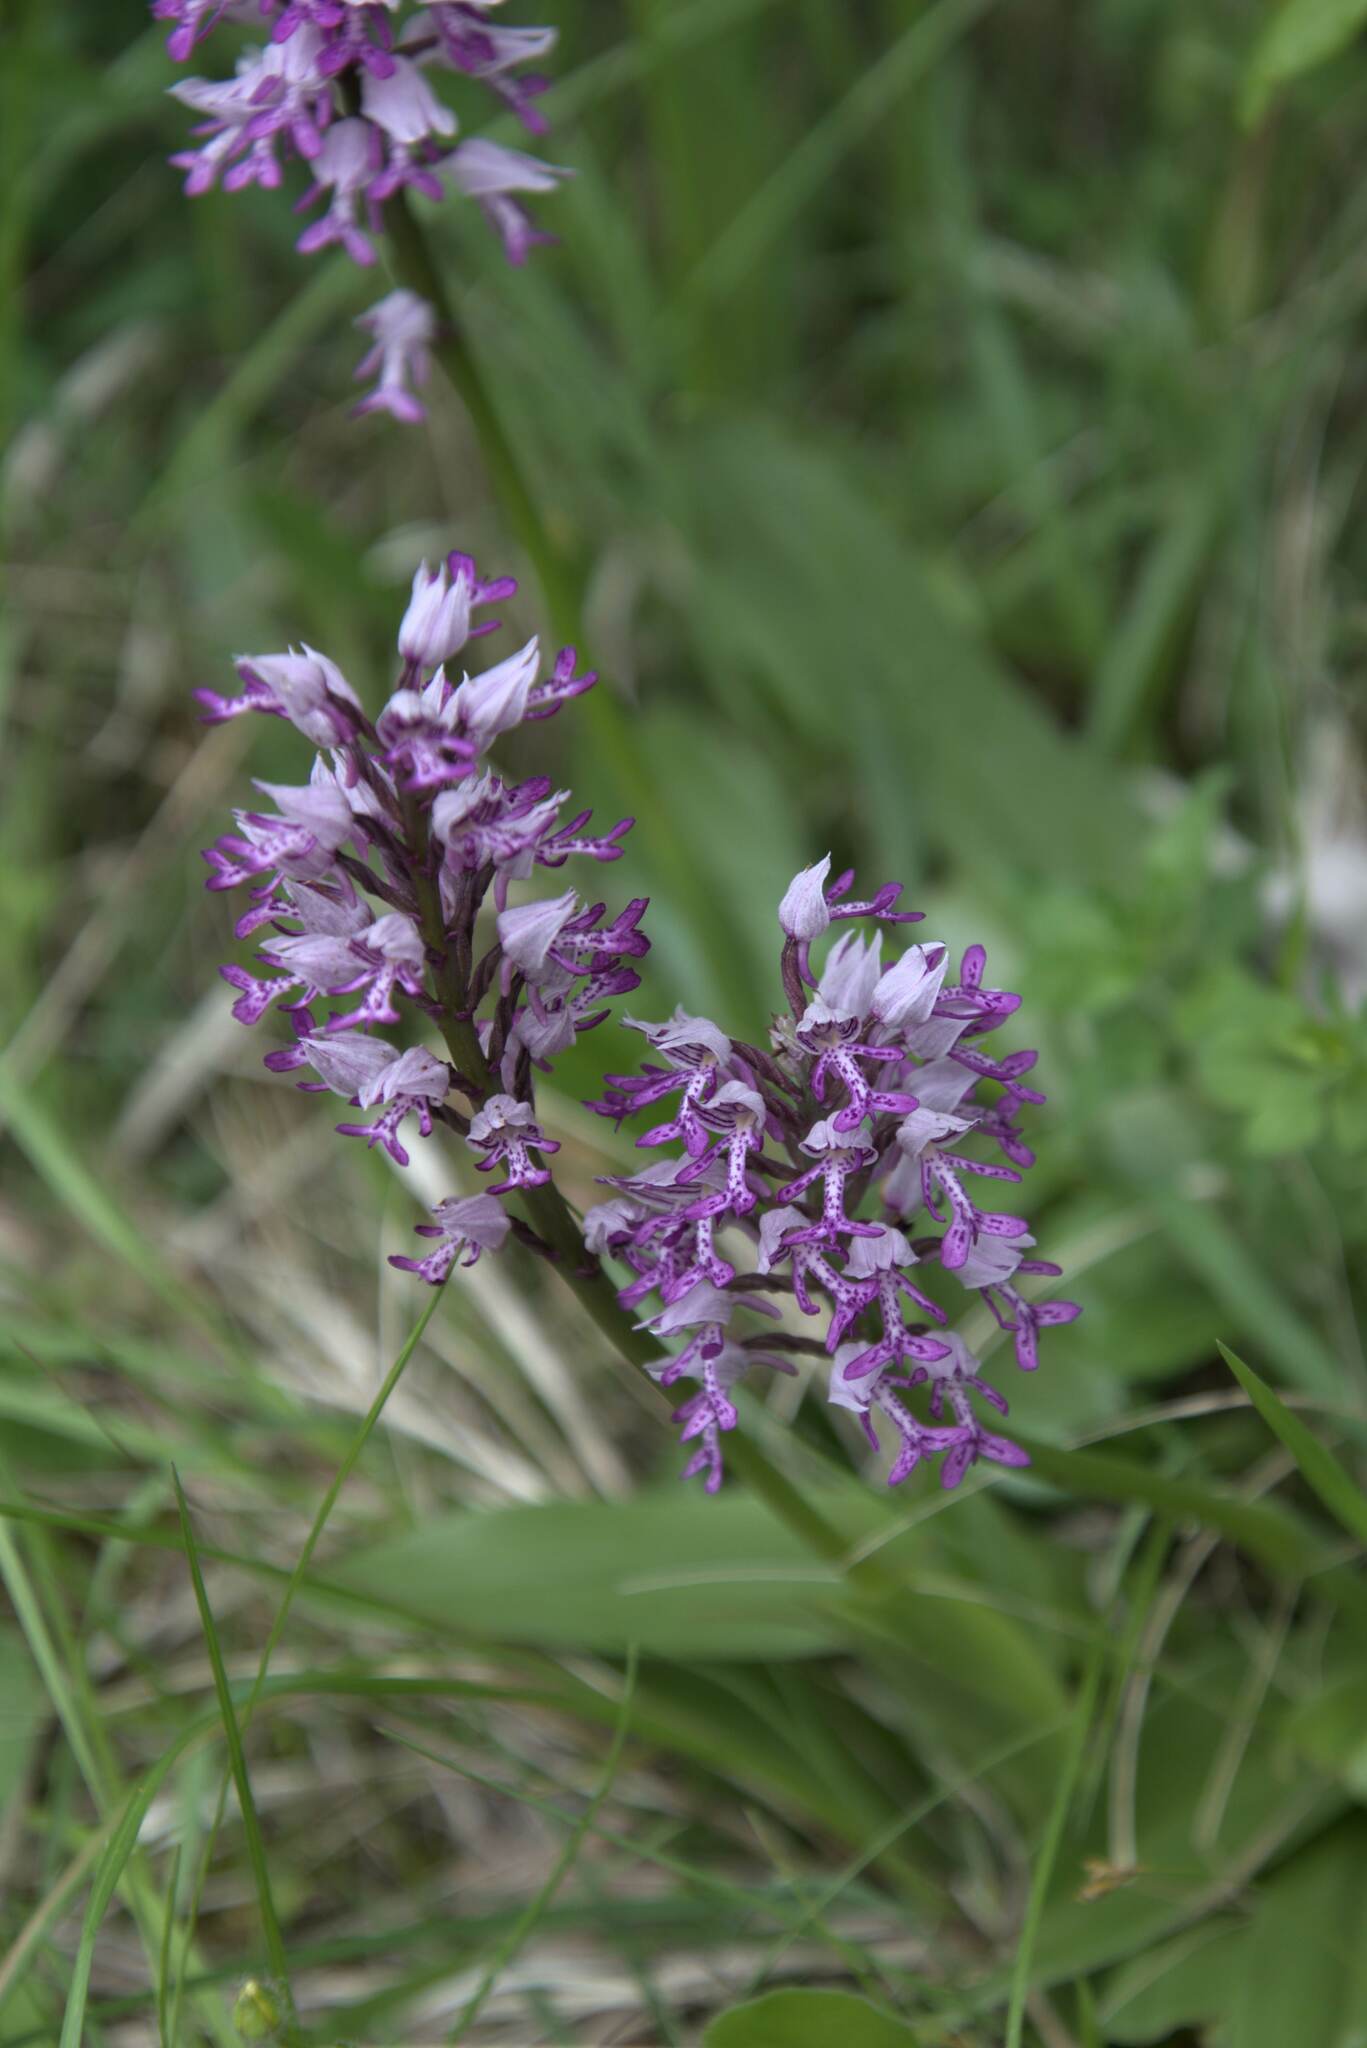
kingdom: Plantae
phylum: Tracheophyta
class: Liliopsida
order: Asparagales
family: Orchidaceae
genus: Orchis
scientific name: Orchis militaris
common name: Military orchid
